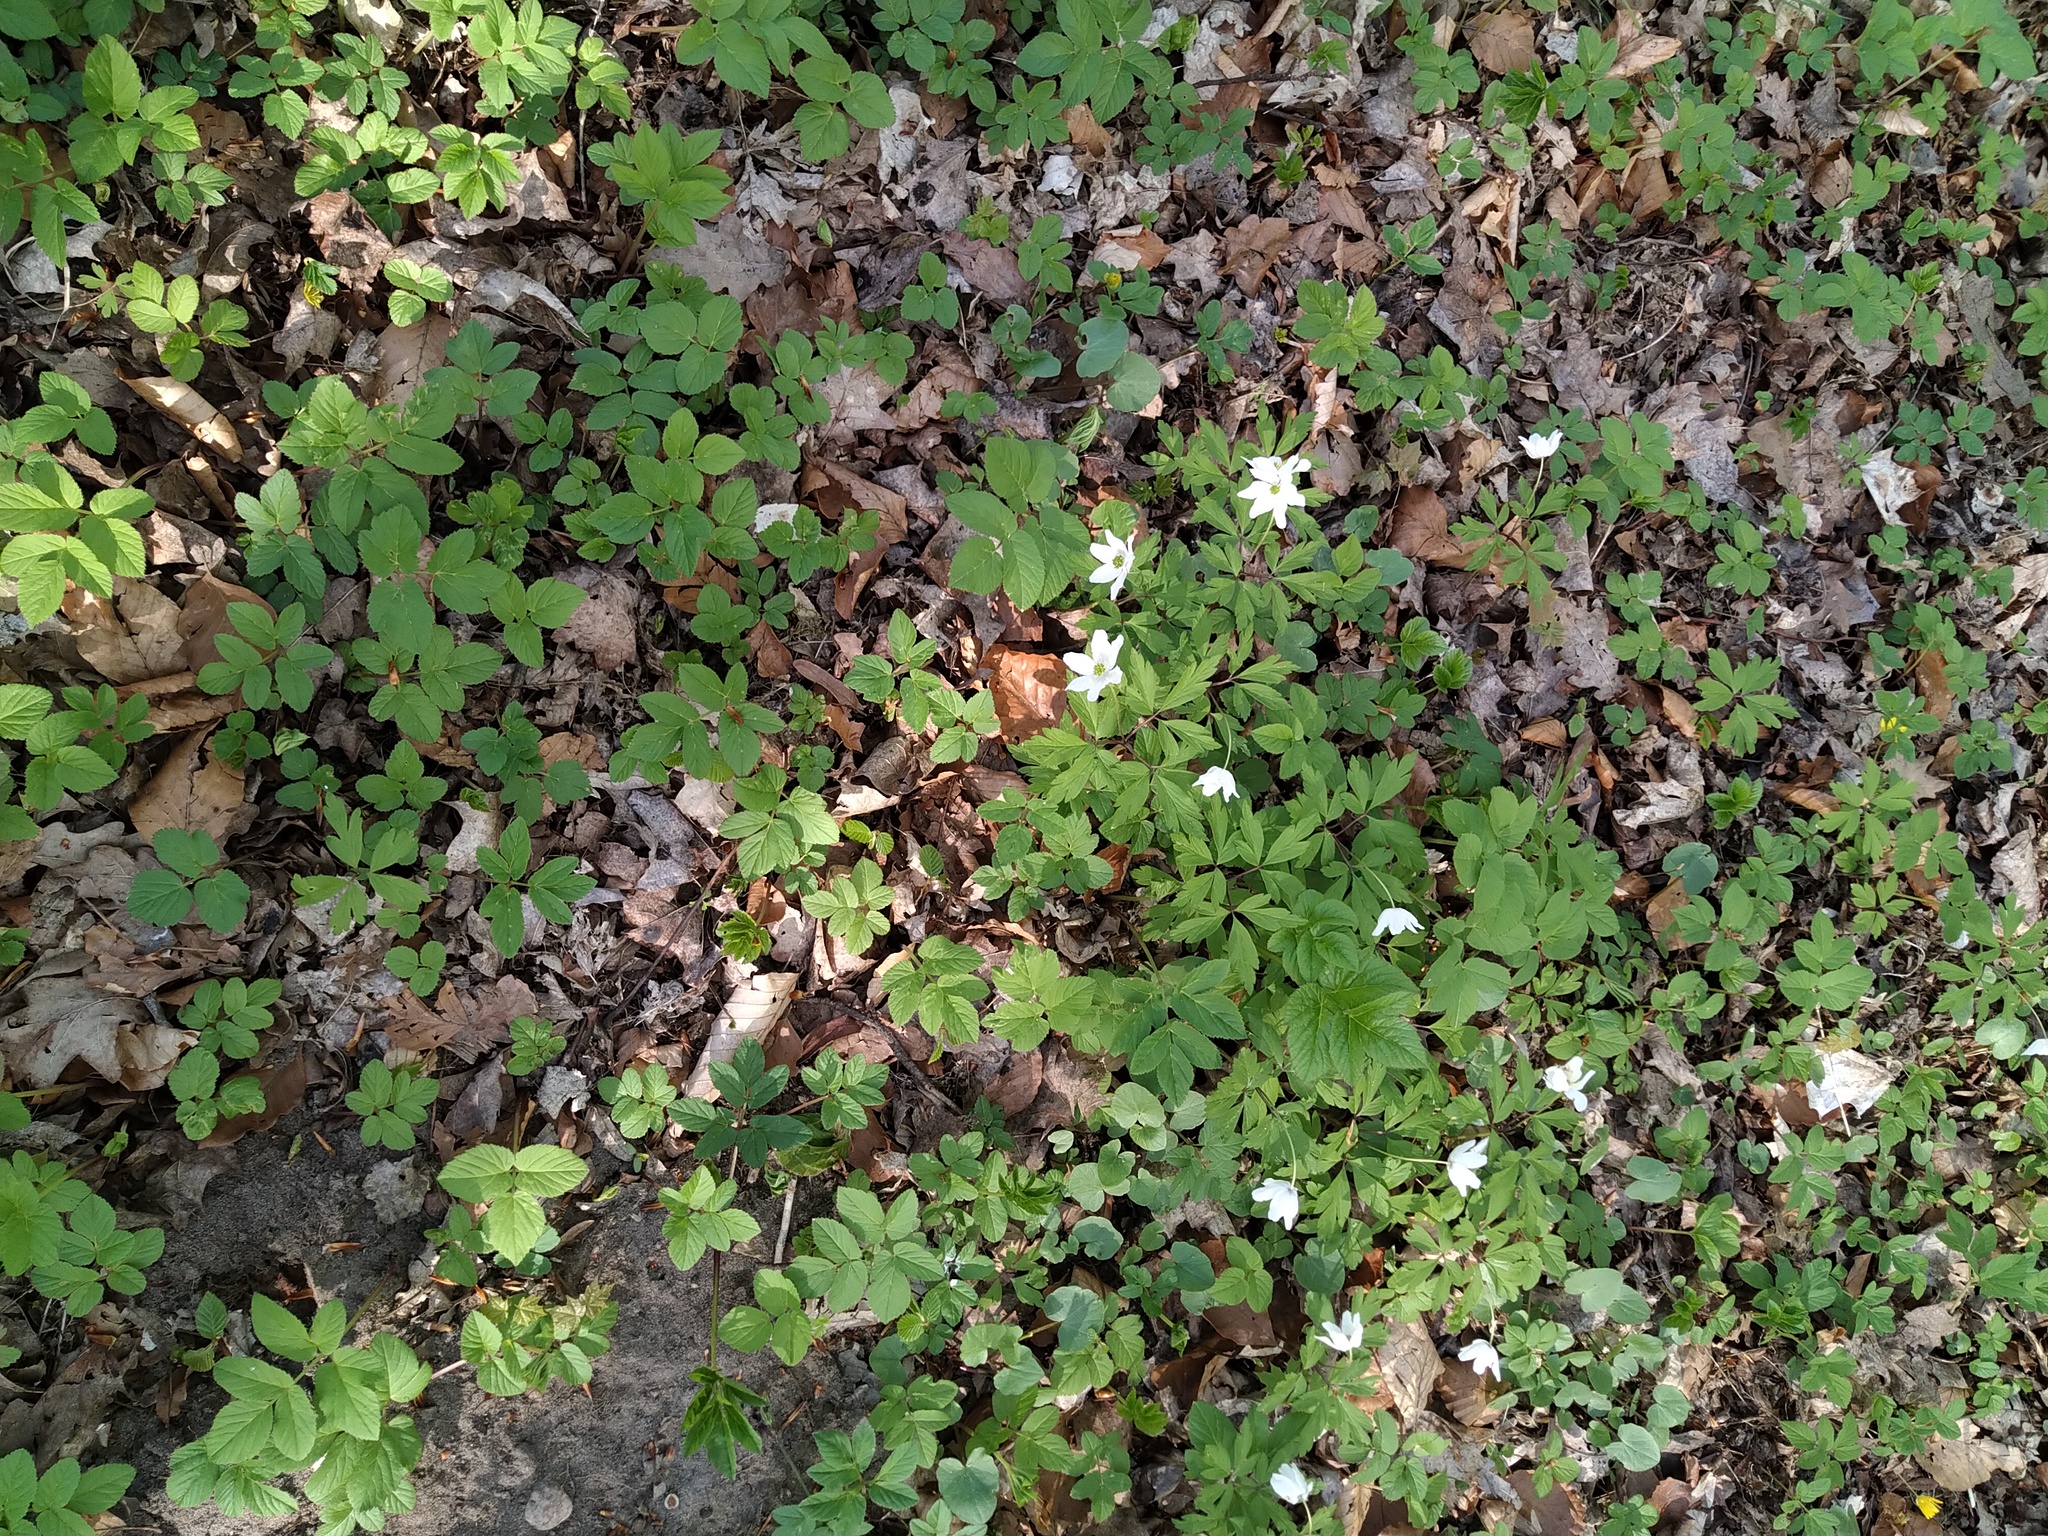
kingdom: Plantae
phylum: Tracheophyta
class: Magnoliopsida
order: Ranunculales
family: Ranunculaceae
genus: Anemone
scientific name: Anemone nemorosa
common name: Wood anemone
